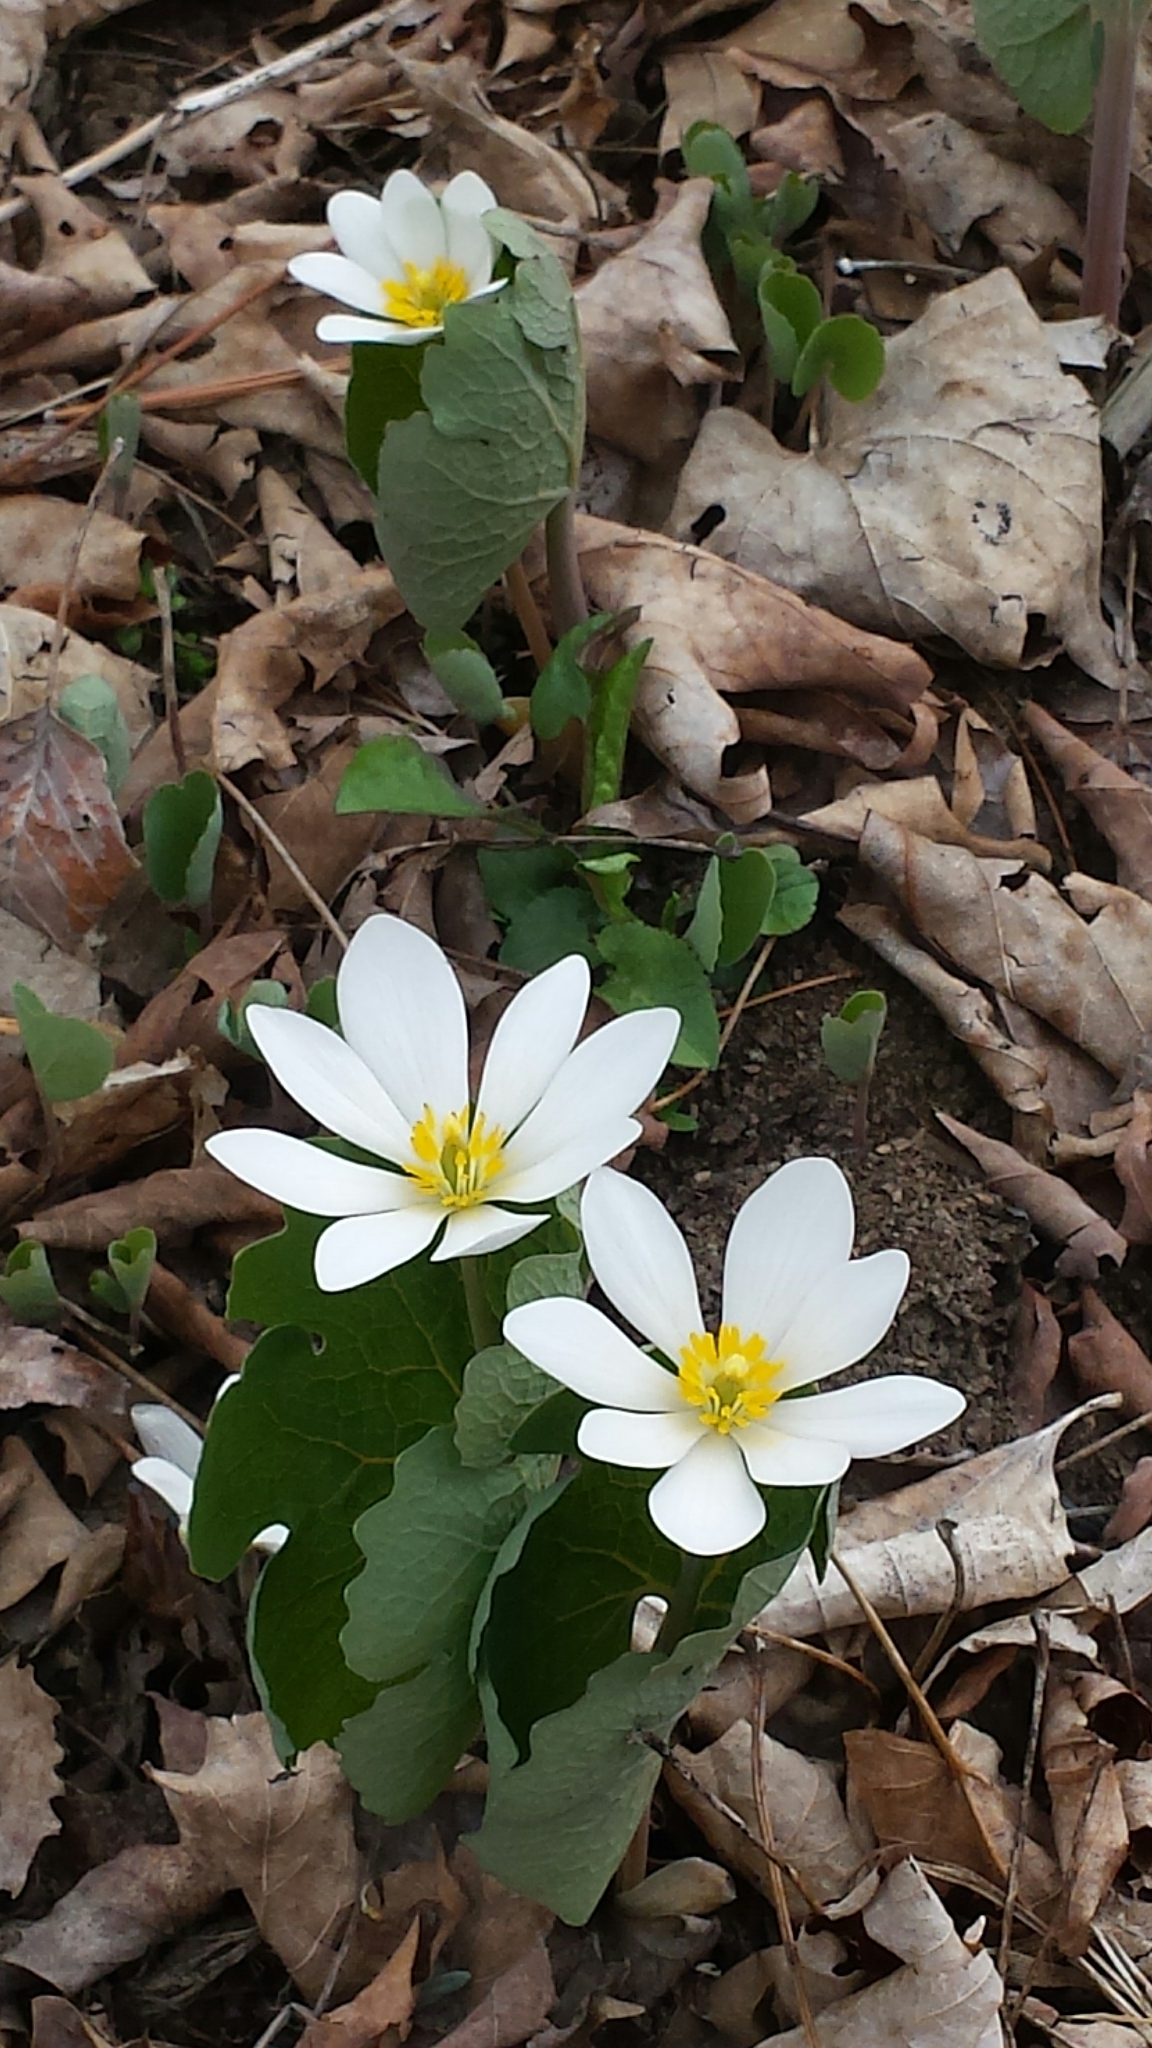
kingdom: Plantae
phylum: Tracheophyta
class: Magnoliopsida
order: Ranunculales
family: Papaveraceae
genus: Sanguinaria
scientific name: Sanguinaria canadensis
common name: Bloodroot
